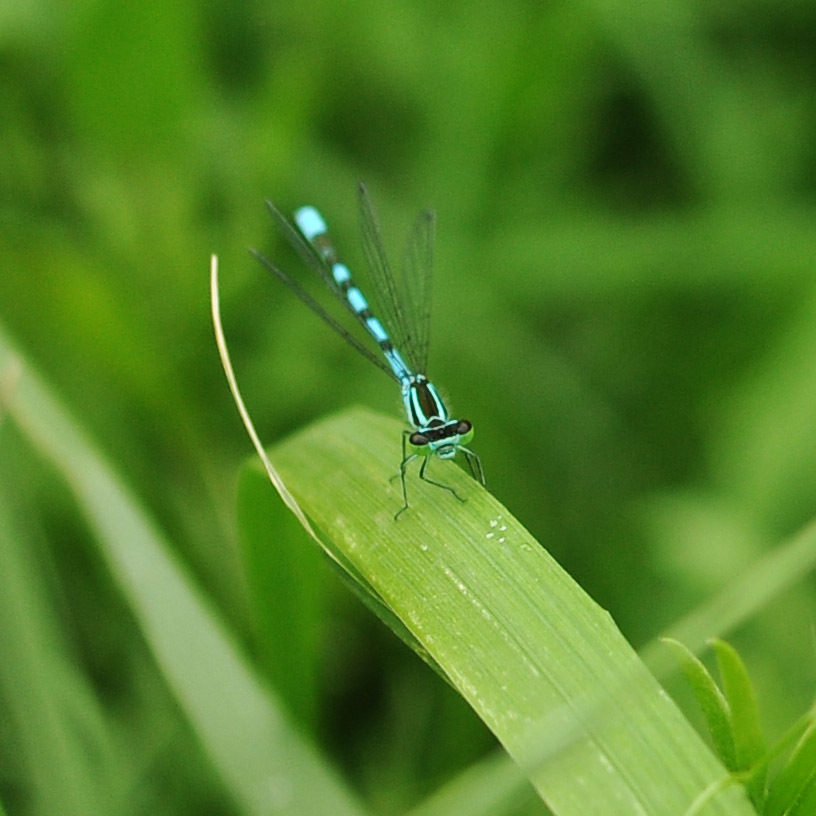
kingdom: Animalia
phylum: Arthropoda
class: Insecta
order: Odonata
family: Coenagrionidae
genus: Coenagrion
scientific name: Coenagrion hastulatum
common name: Spearhead bluet
